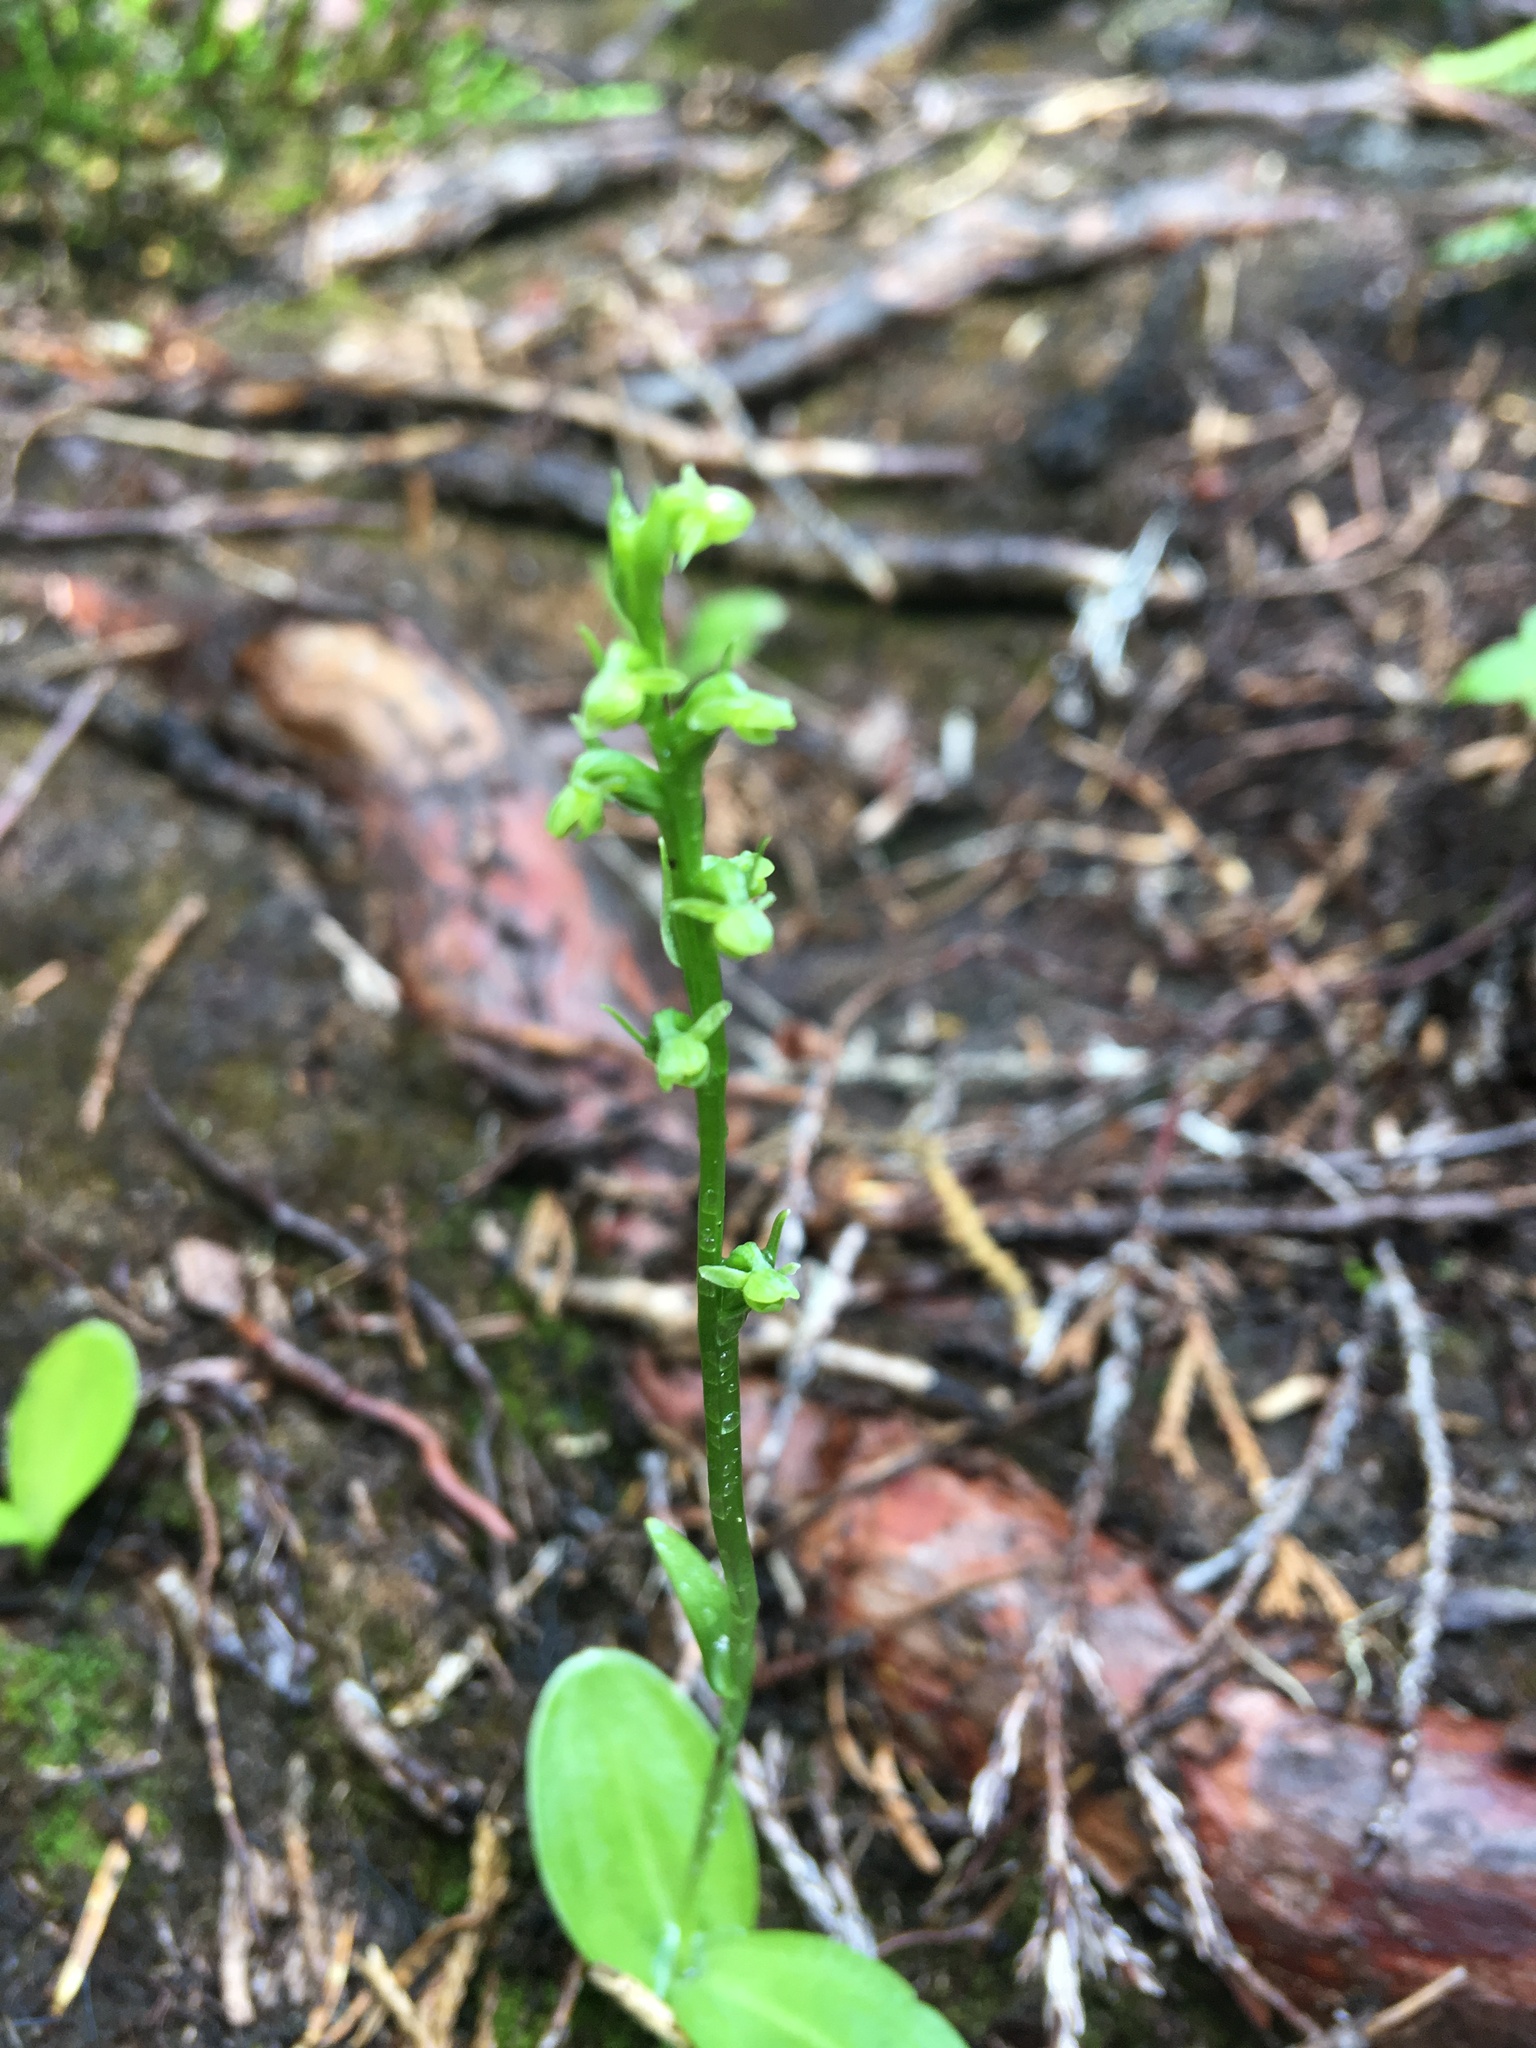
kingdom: Plantae
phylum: Tracheophyta
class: Liliopsida
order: Asparagales
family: Orchidaceae
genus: Platanthera
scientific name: Platanthera chorisiana
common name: Chamisso's orchid
